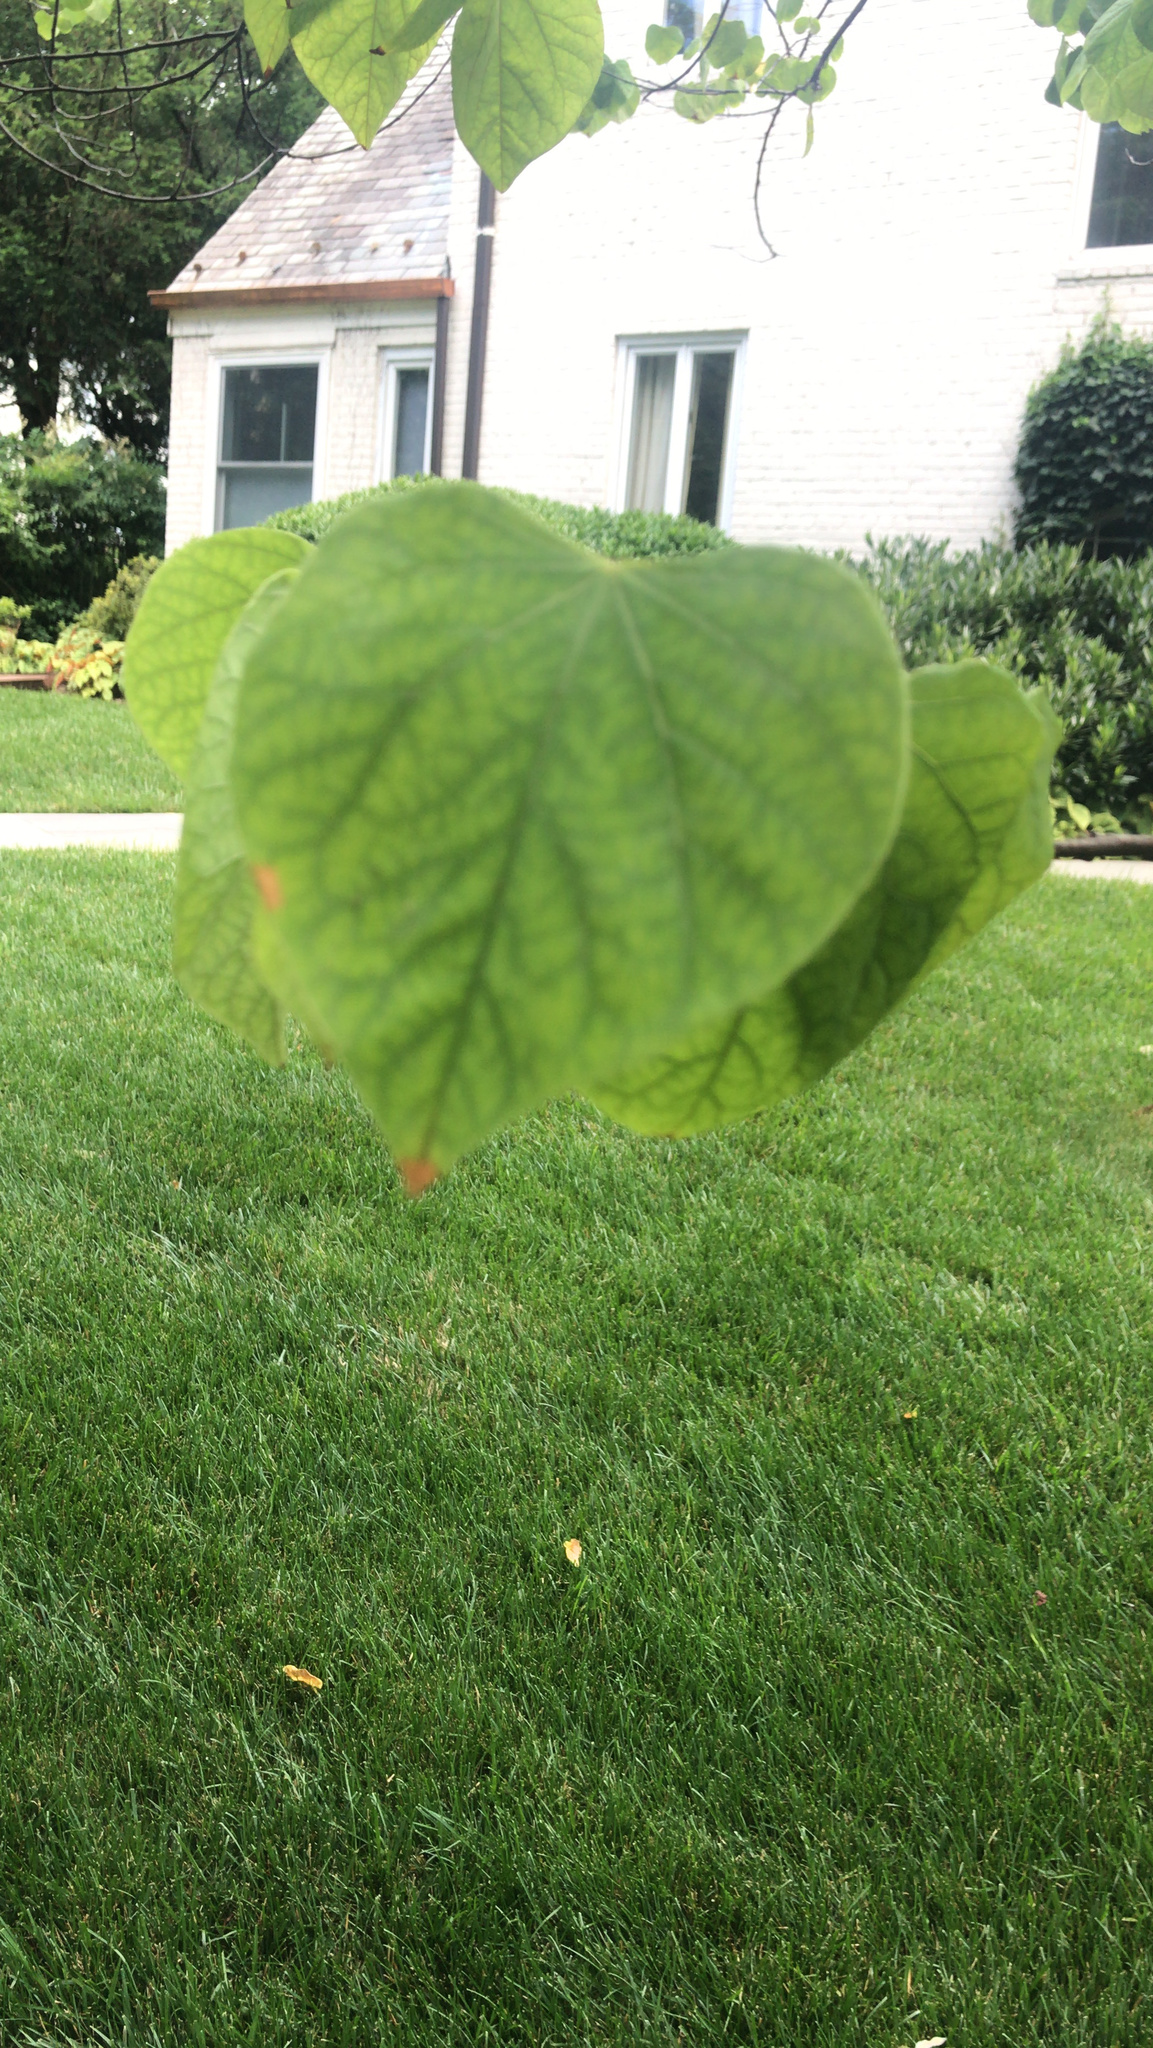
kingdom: Plantae
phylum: Tracheophyta
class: Magnoliopsida
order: Fabales
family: Fabaceae
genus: Cercis
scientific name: Cercis canadensis
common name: Eastern redbud
